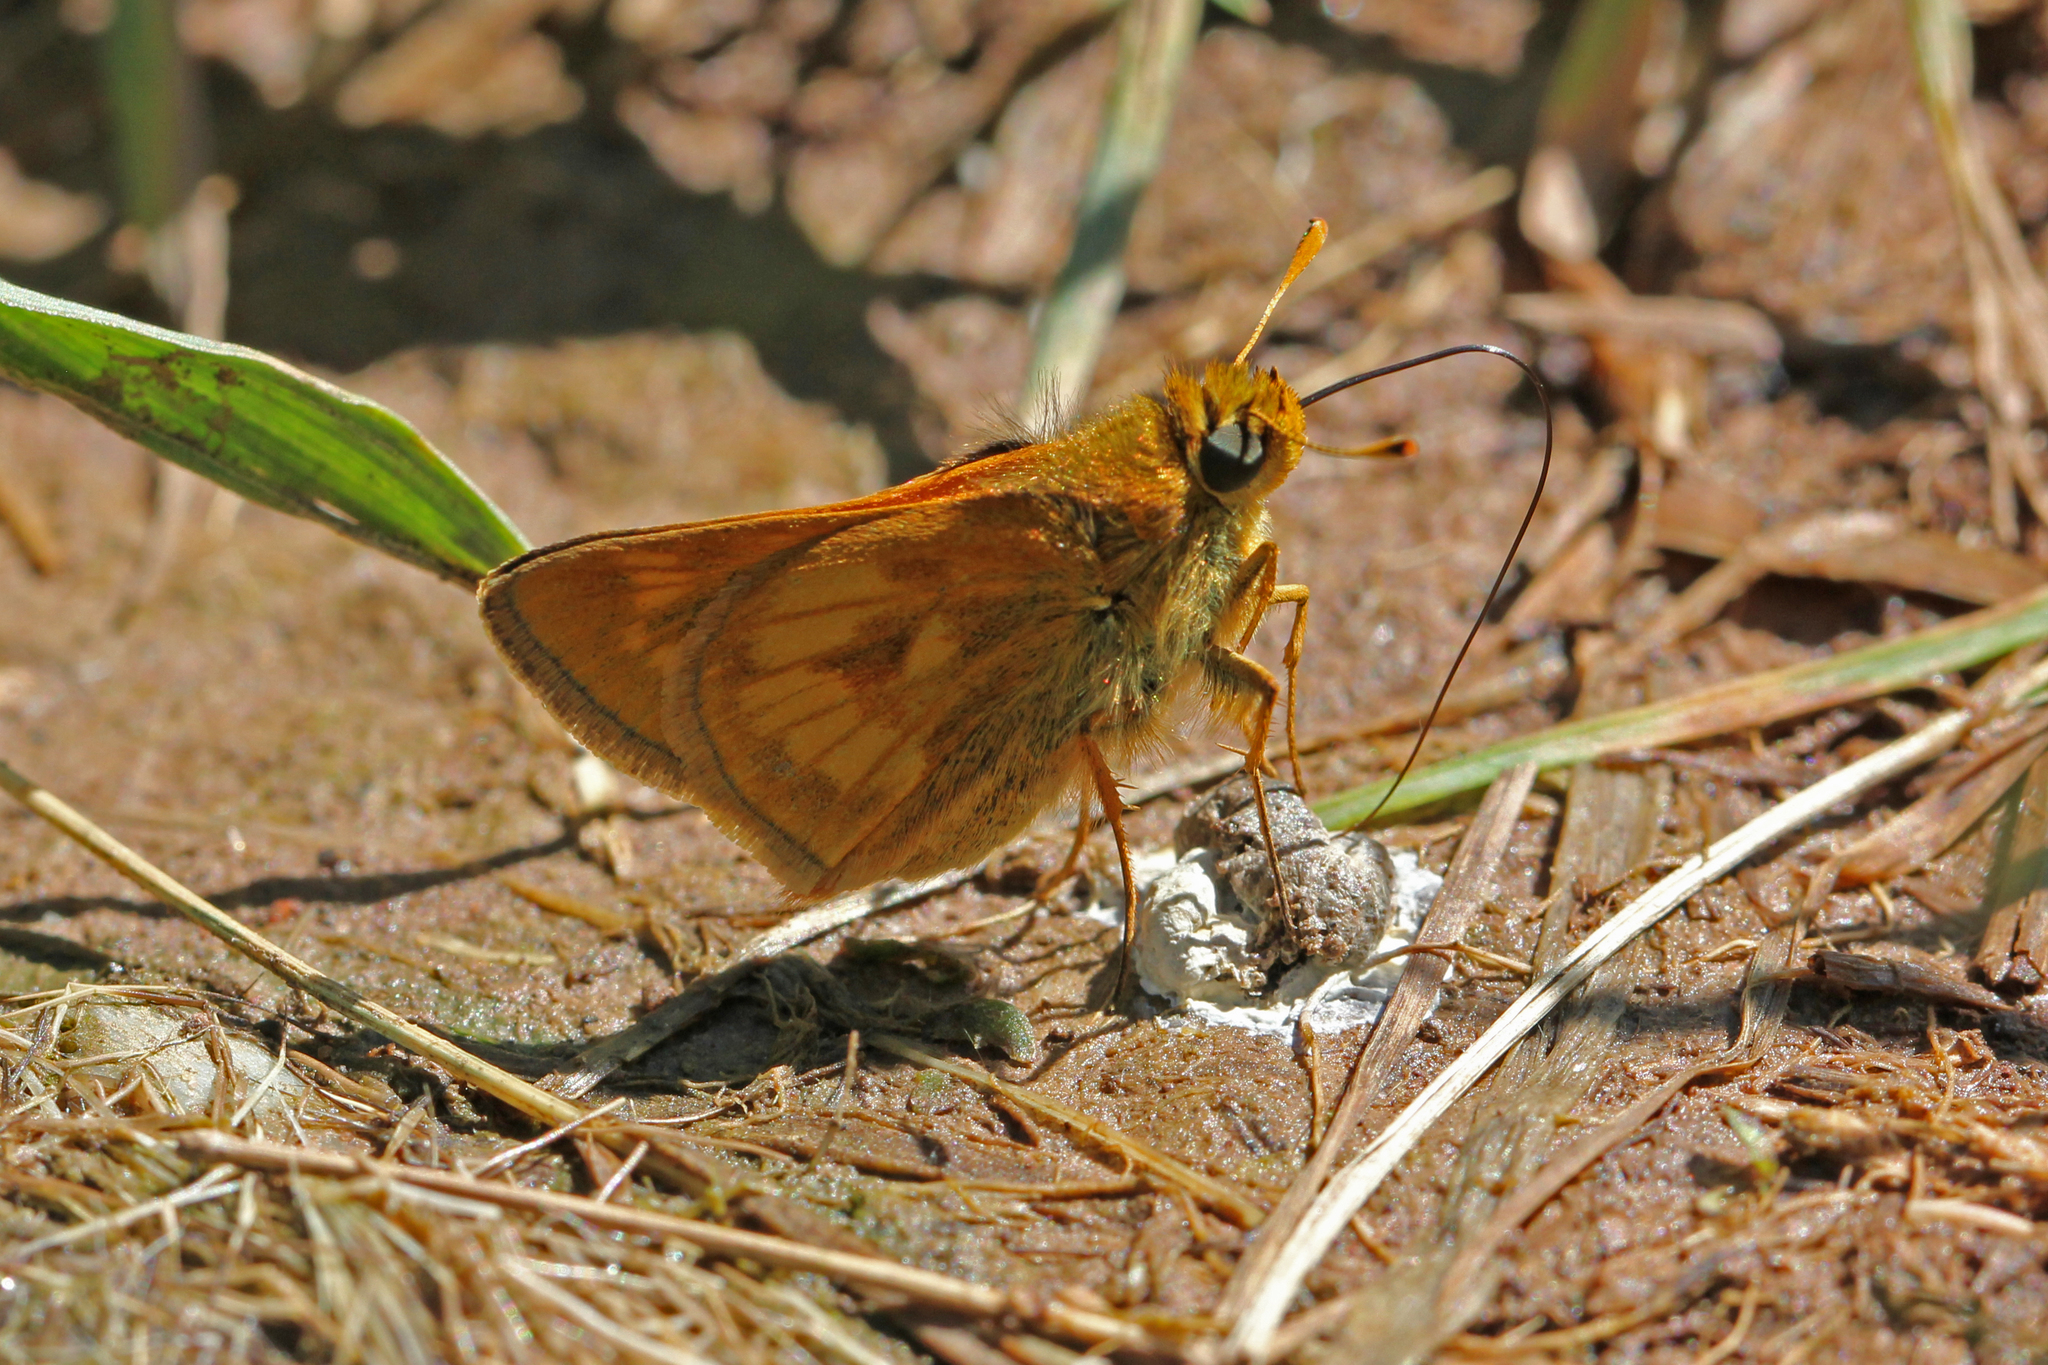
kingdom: Animalia
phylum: Arthropoda
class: Insecta
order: Lepidoptera
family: Hesperiidae
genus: Polites
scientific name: Polites mystic
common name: Long dash
